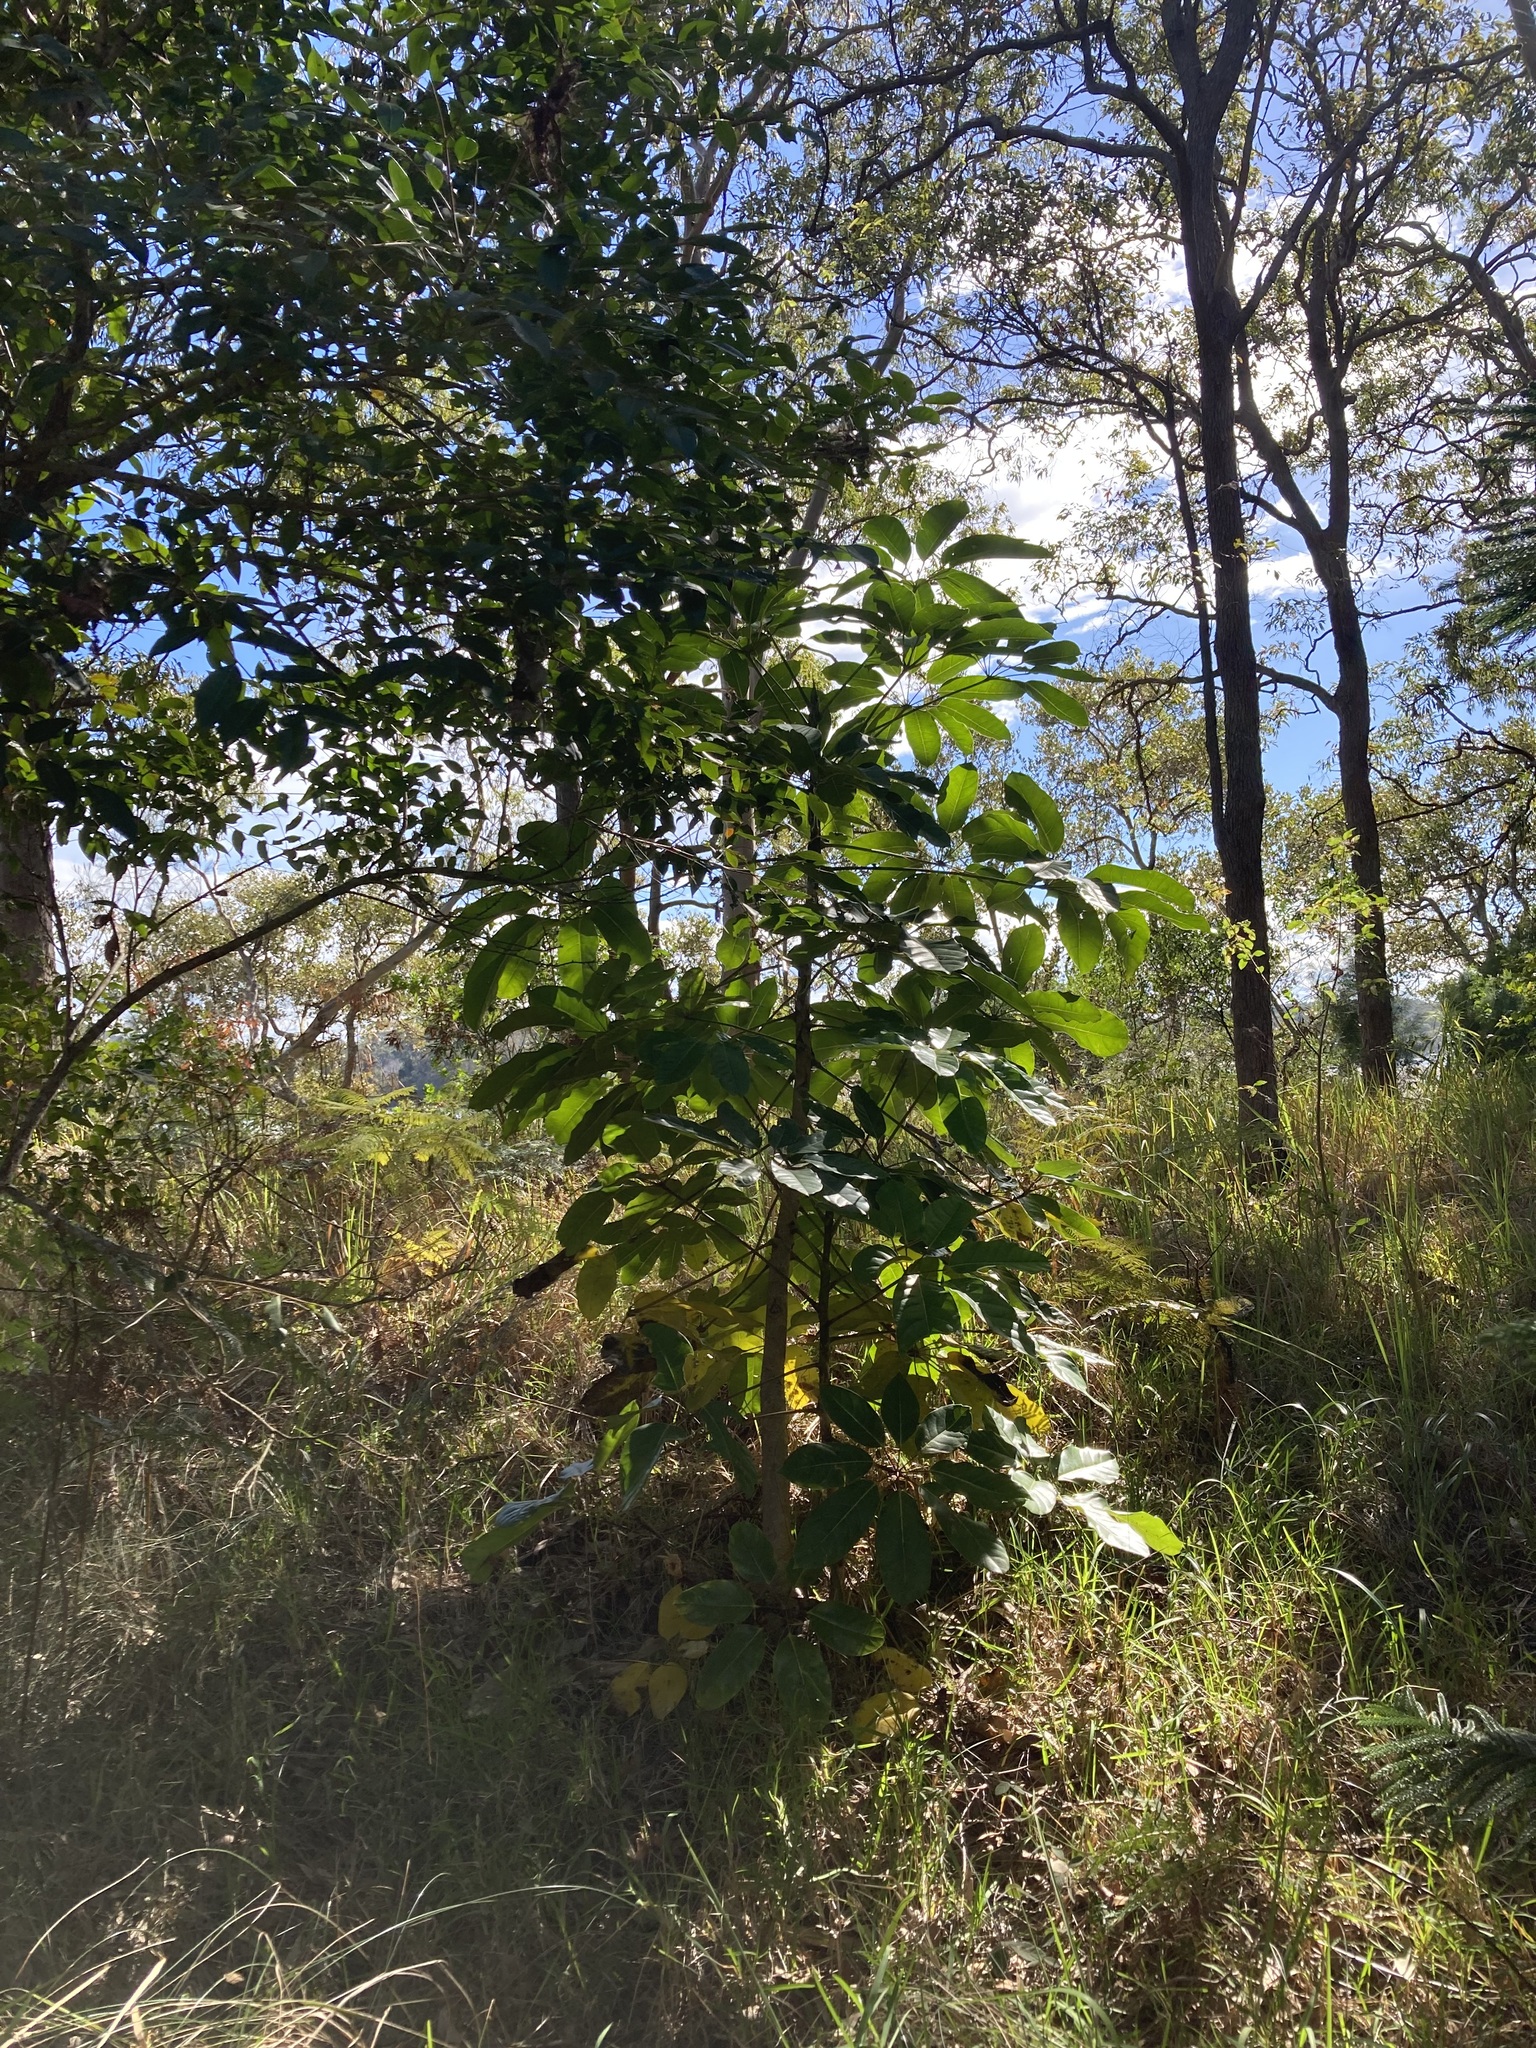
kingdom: Plantae
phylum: Tracheophyta
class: Magnoliopsida
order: Apiales
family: Araliaceae
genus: Heptapleurum
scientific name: Heptapleurum actinophyllum
